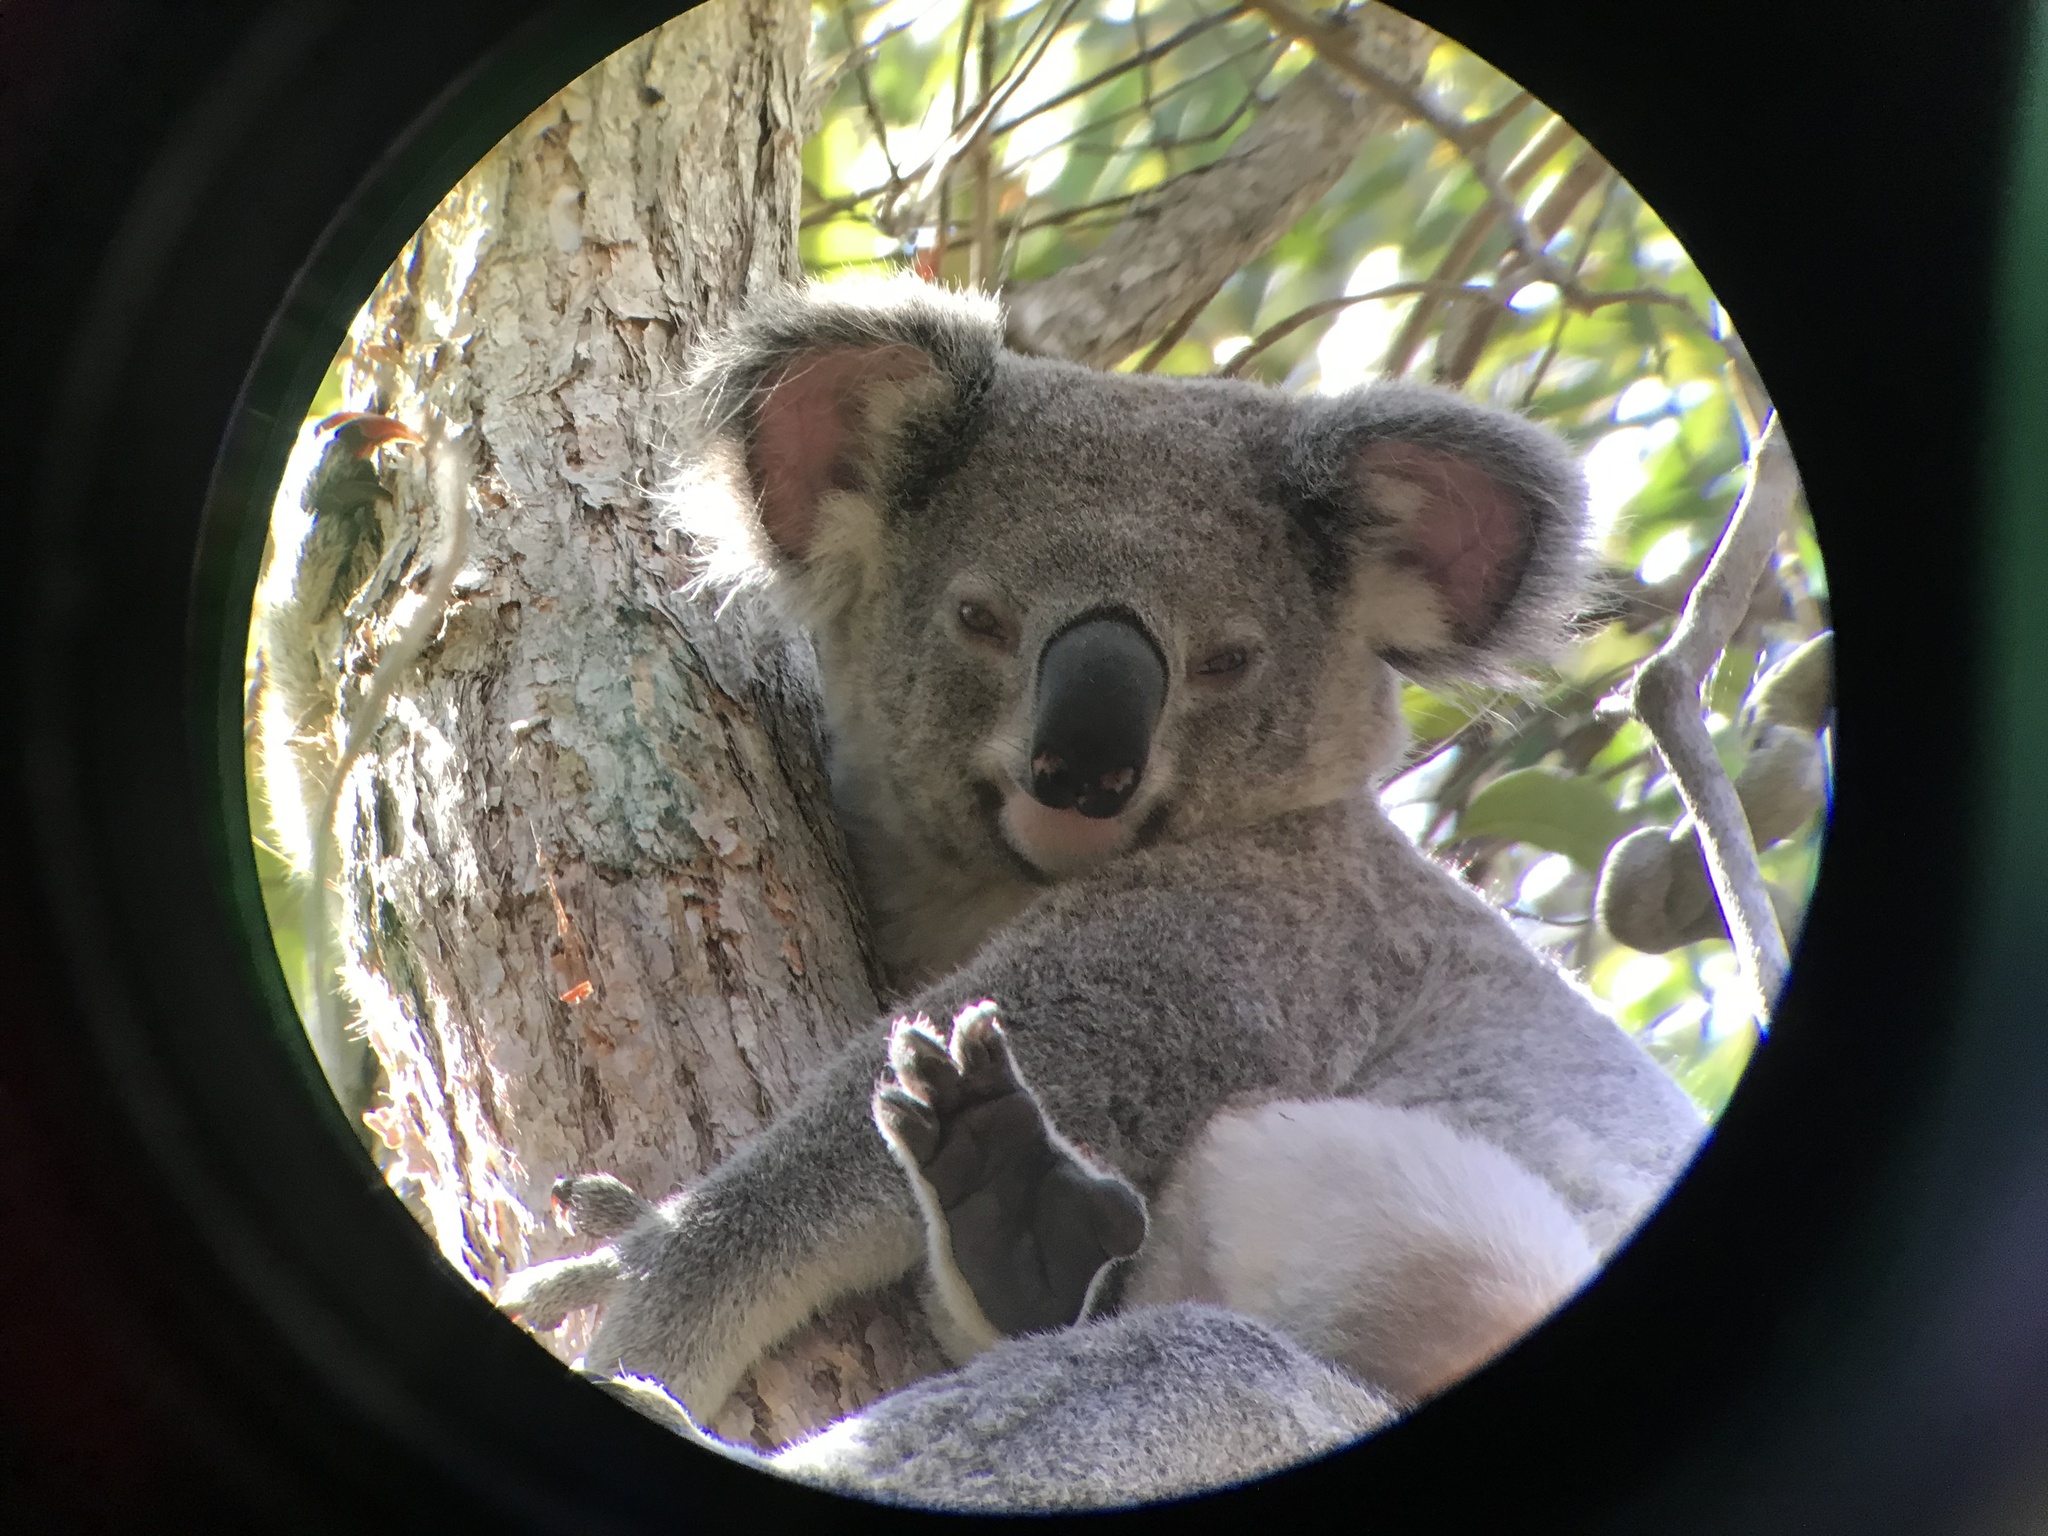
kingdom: Animalia
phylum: Chordata
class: Mammalia
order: Diprotodontia
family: Phascolarctidae
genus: Phascolarctos
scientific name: Phascolarctos cinereus
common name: Koala
